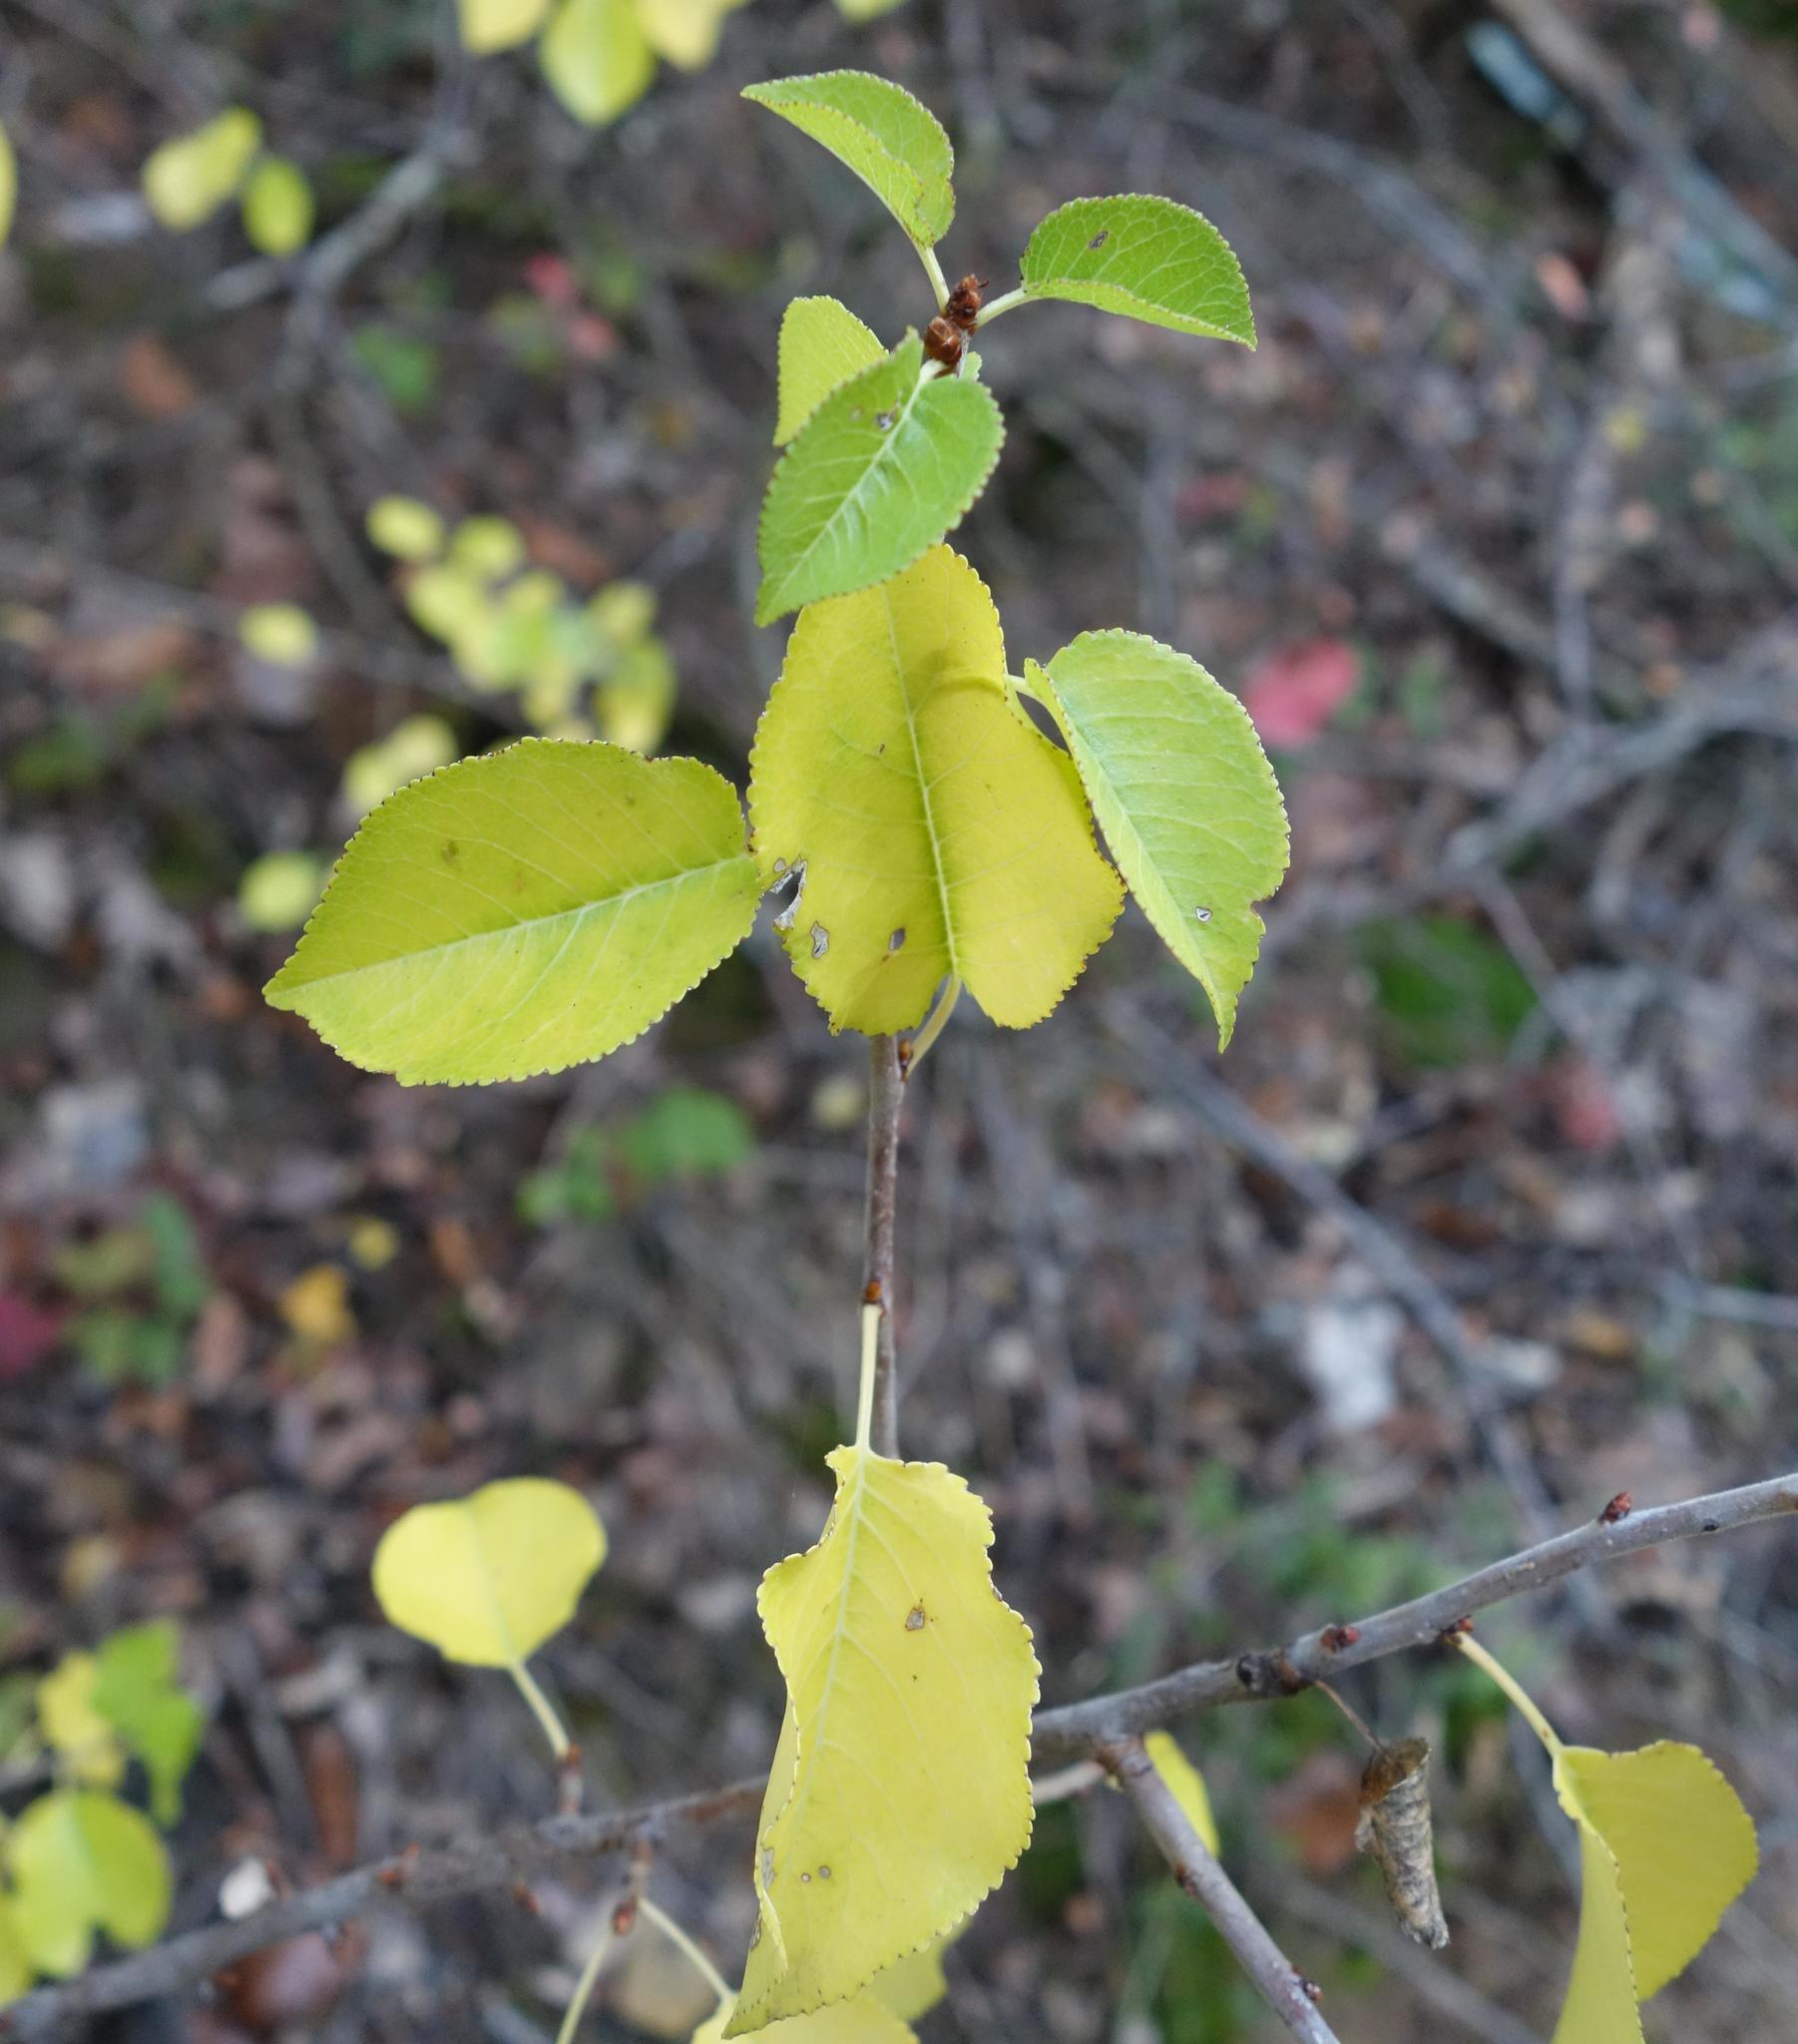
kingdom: Plantae
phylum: Tracheophyta
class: Magnoliopsida
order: Rosales
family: Rosaceae
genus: Prunus
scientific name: Prunus mahaleb
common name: Mahaleb cherry
